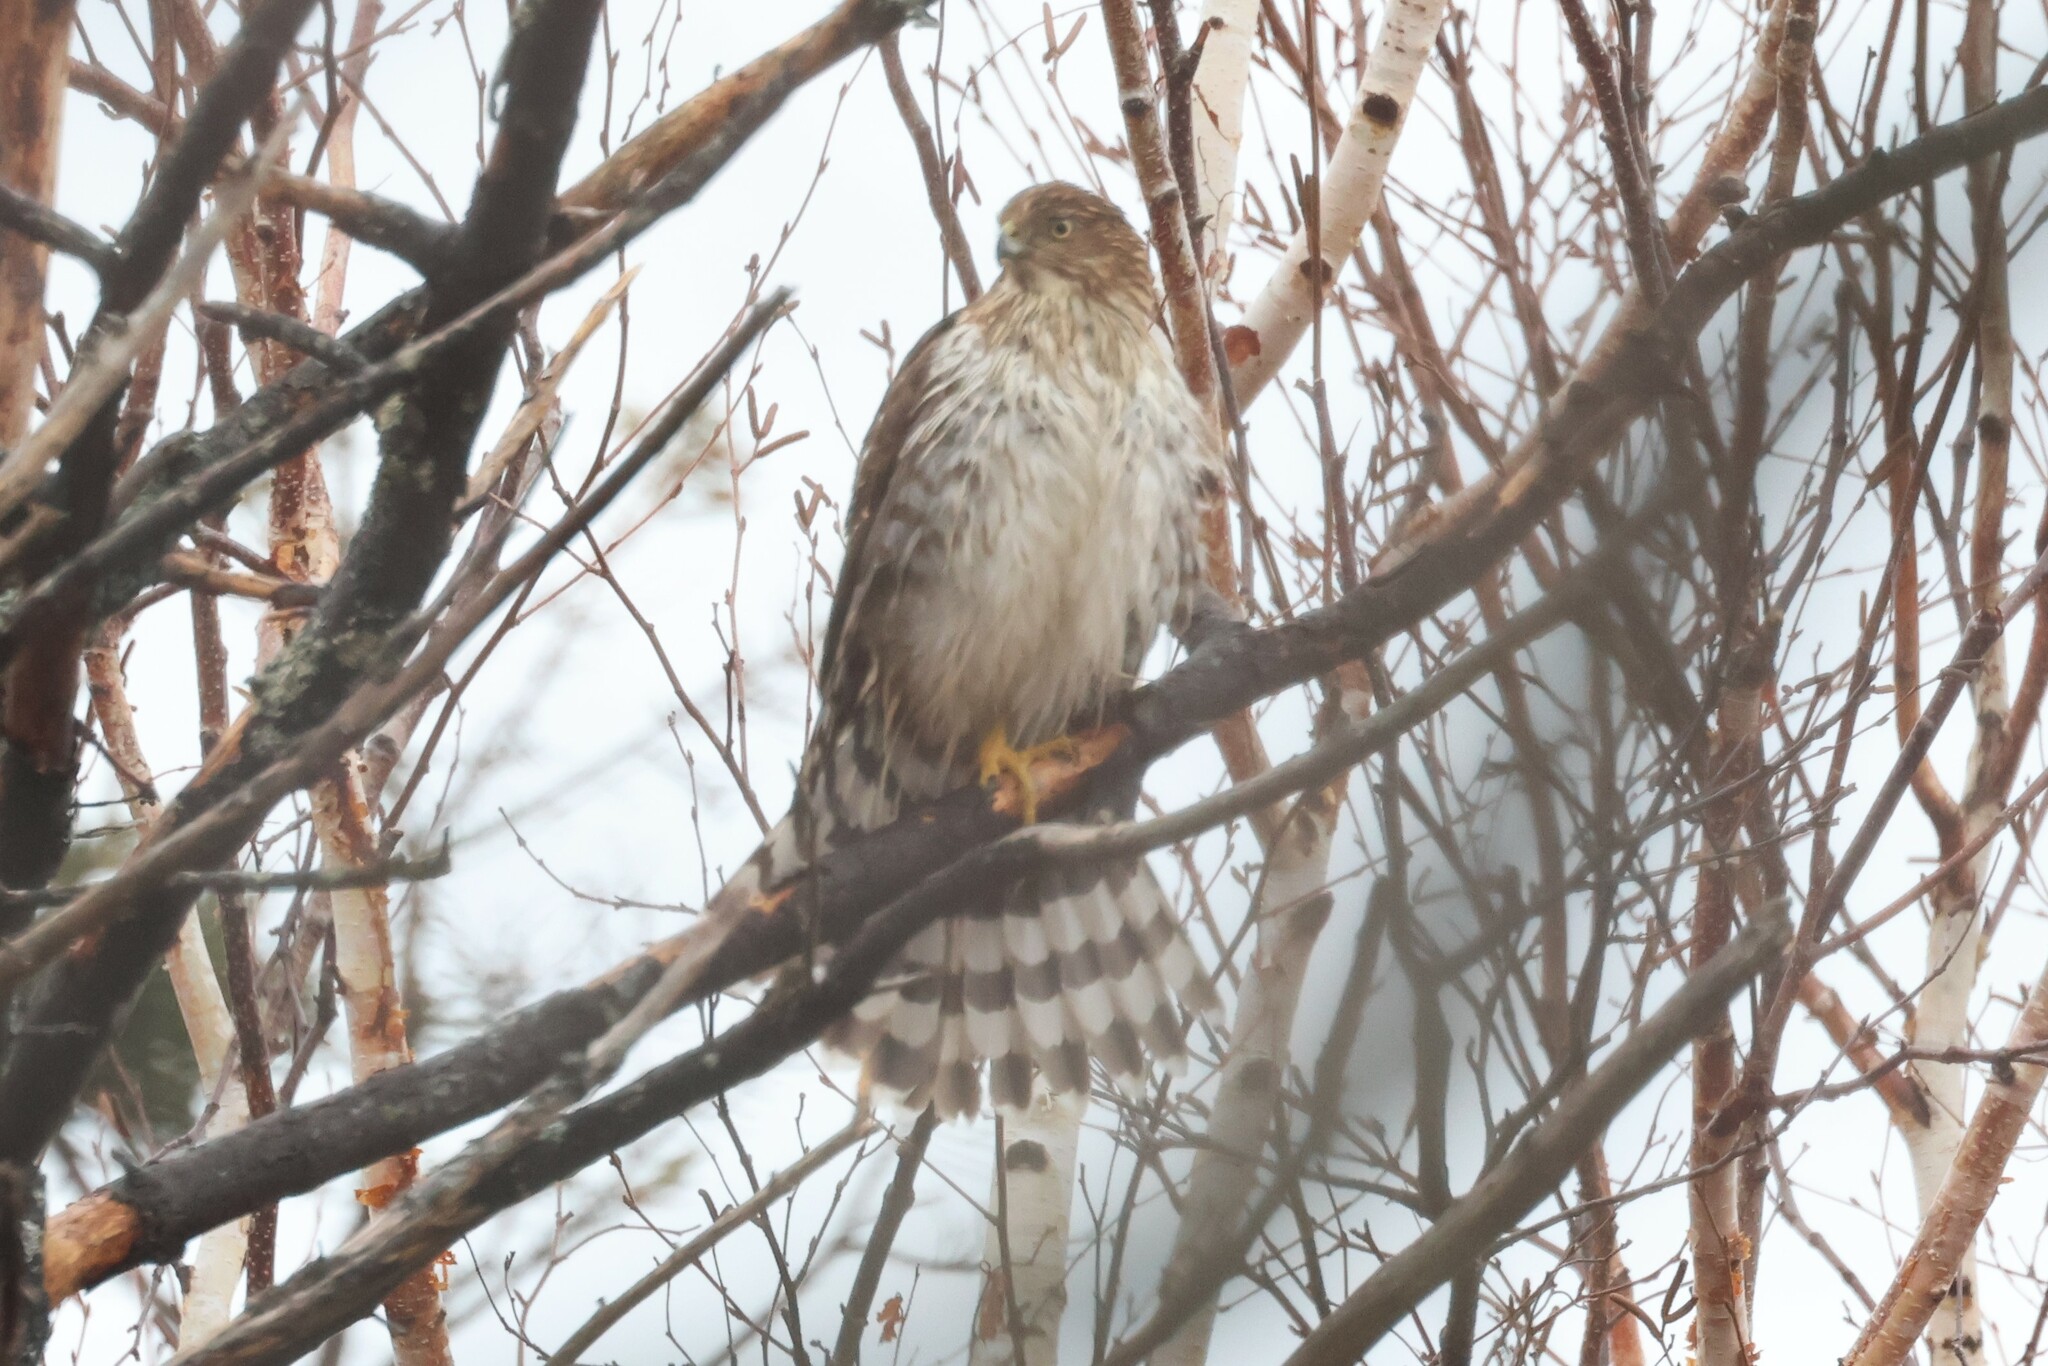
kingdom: Animalia
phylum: Chordata
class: Aves
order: Accipitriformes
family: Accipitridae
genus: Accipiter
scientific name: Accipiter cooperii
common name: Cooper's hawk
